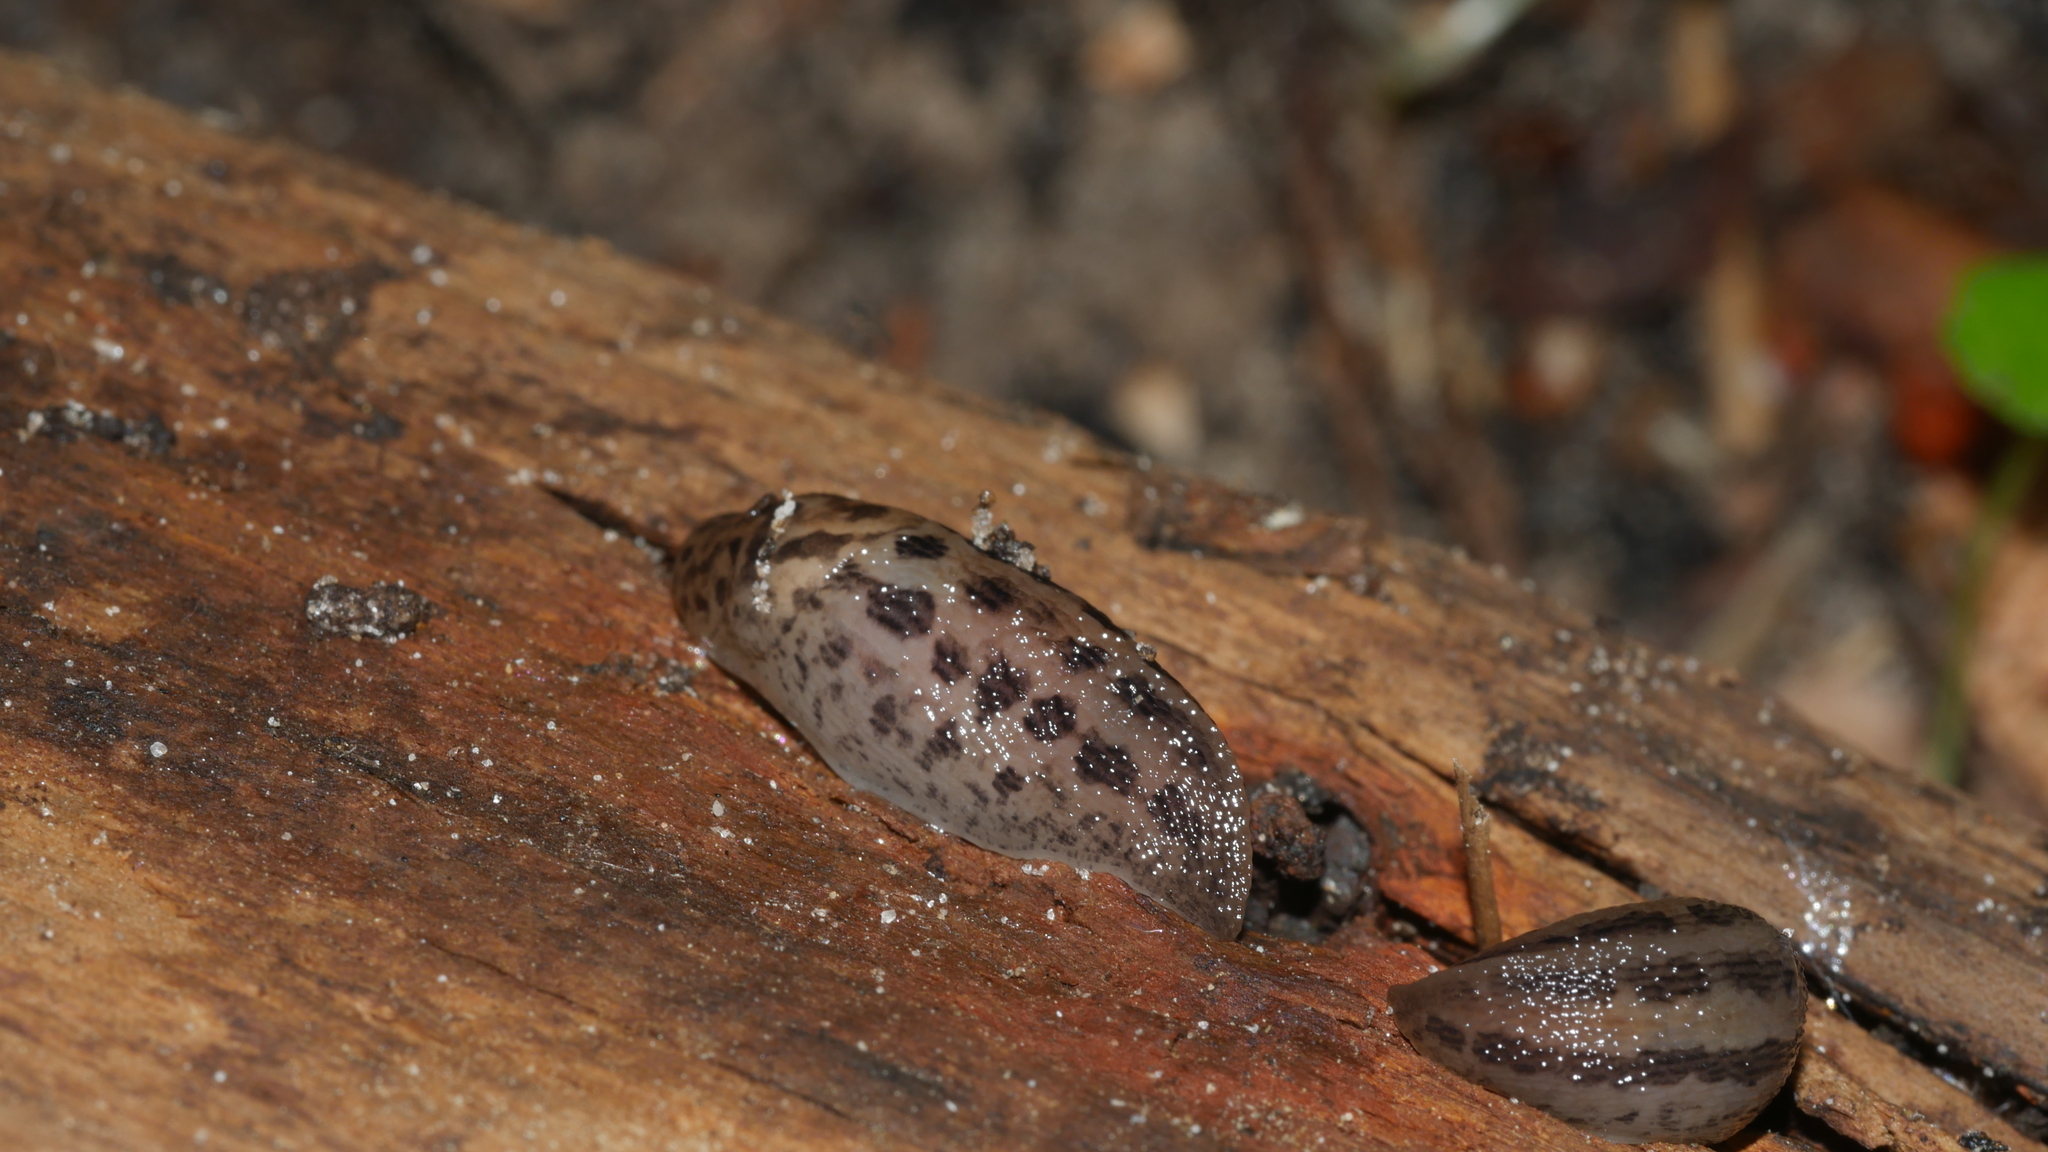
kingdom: Animalia
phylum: Mollusca
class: Gastropoda
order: Stylommatophora
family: Limacidae
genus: Limax
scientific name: Limax maximus
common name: Great grey slug
